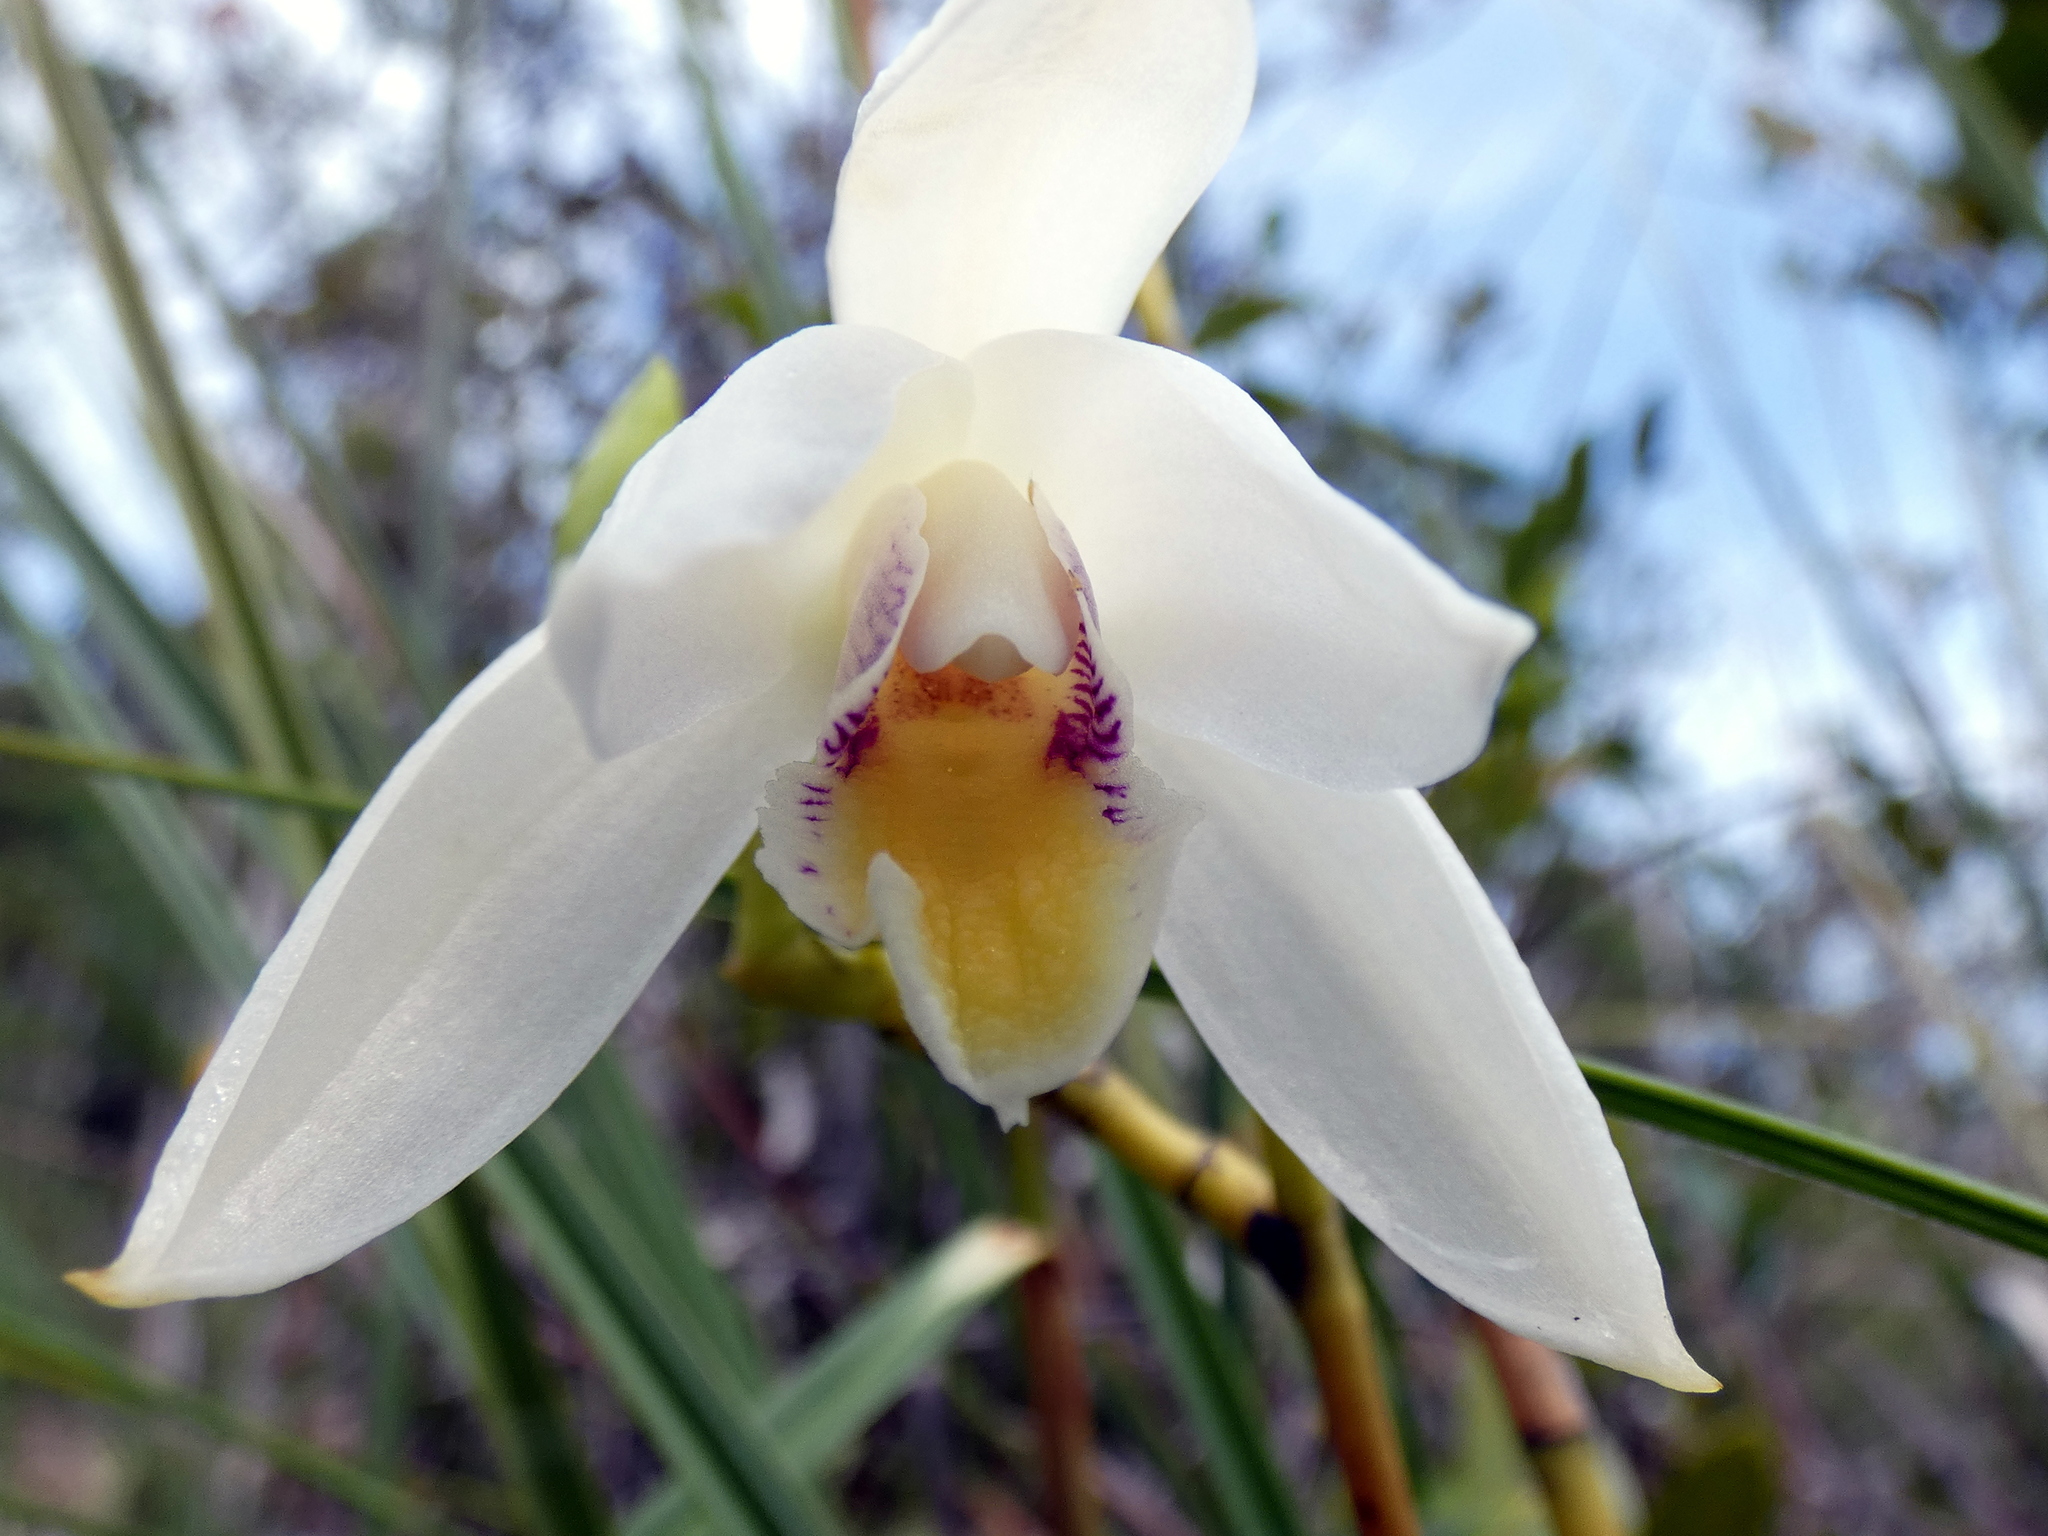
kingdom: Plantae
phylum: Tracheophyta
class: Liliopsida
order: Asparagales
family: Orchidaceae
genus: Bromheadia
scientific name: Bromheadia finlaysoniana
